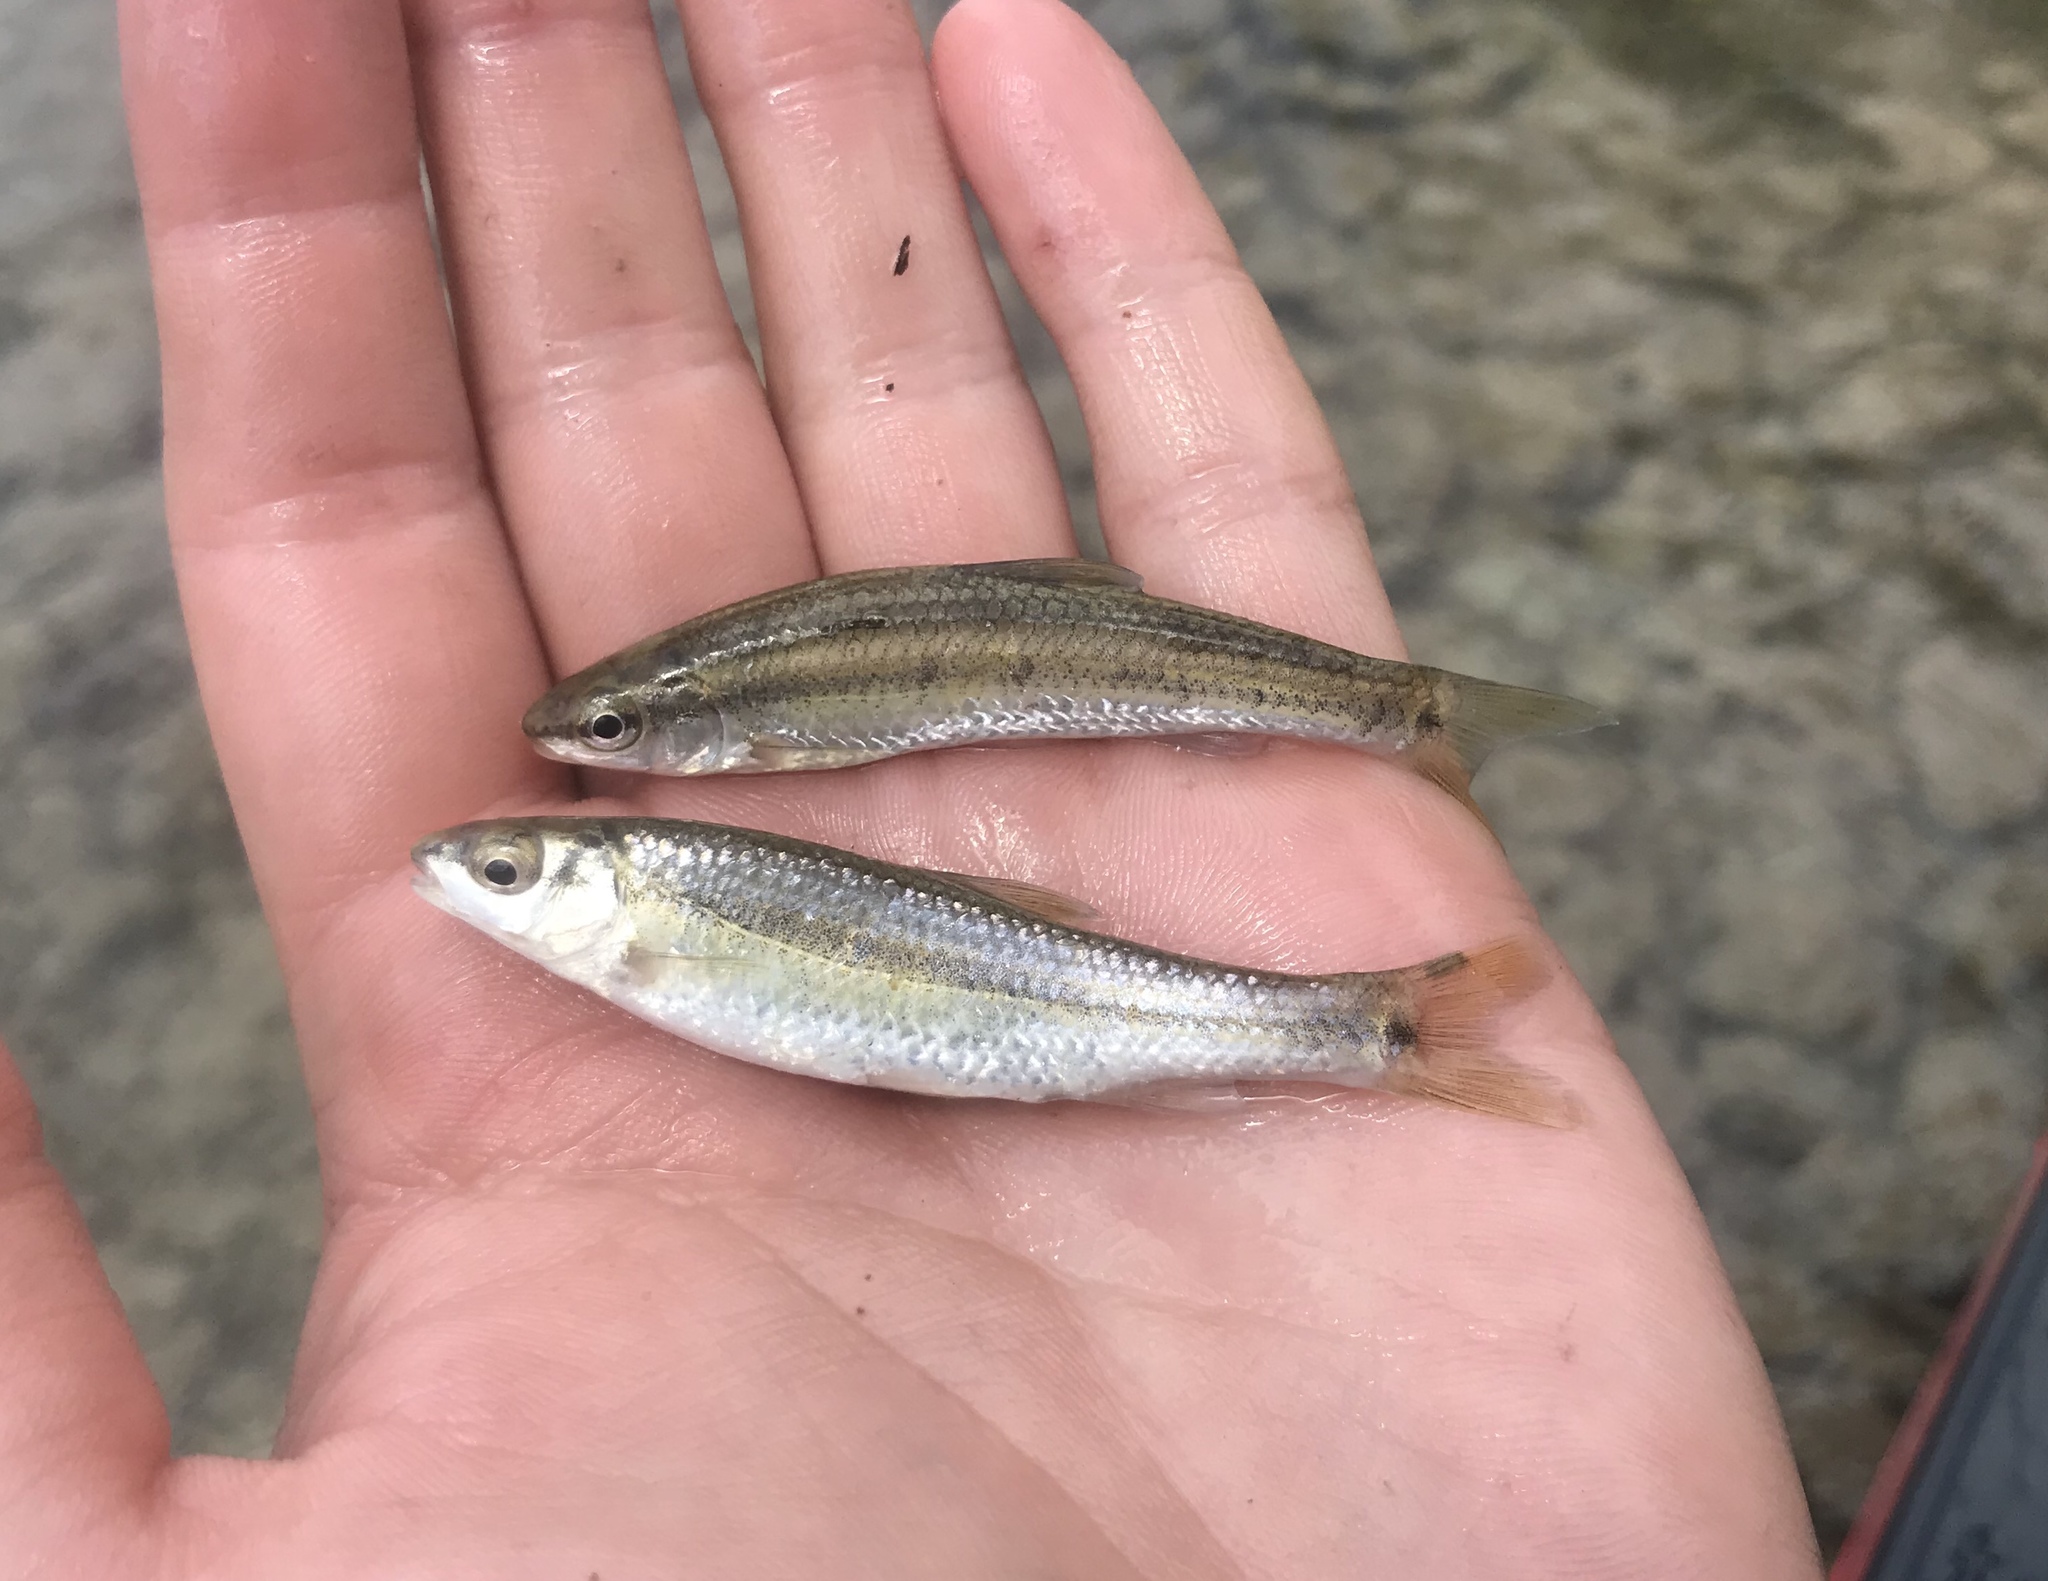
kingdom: Animalia
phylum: Chordata
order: Cypriniformes
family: Cyprinidae
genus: Dionda
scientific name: Dionda flavipinnis
